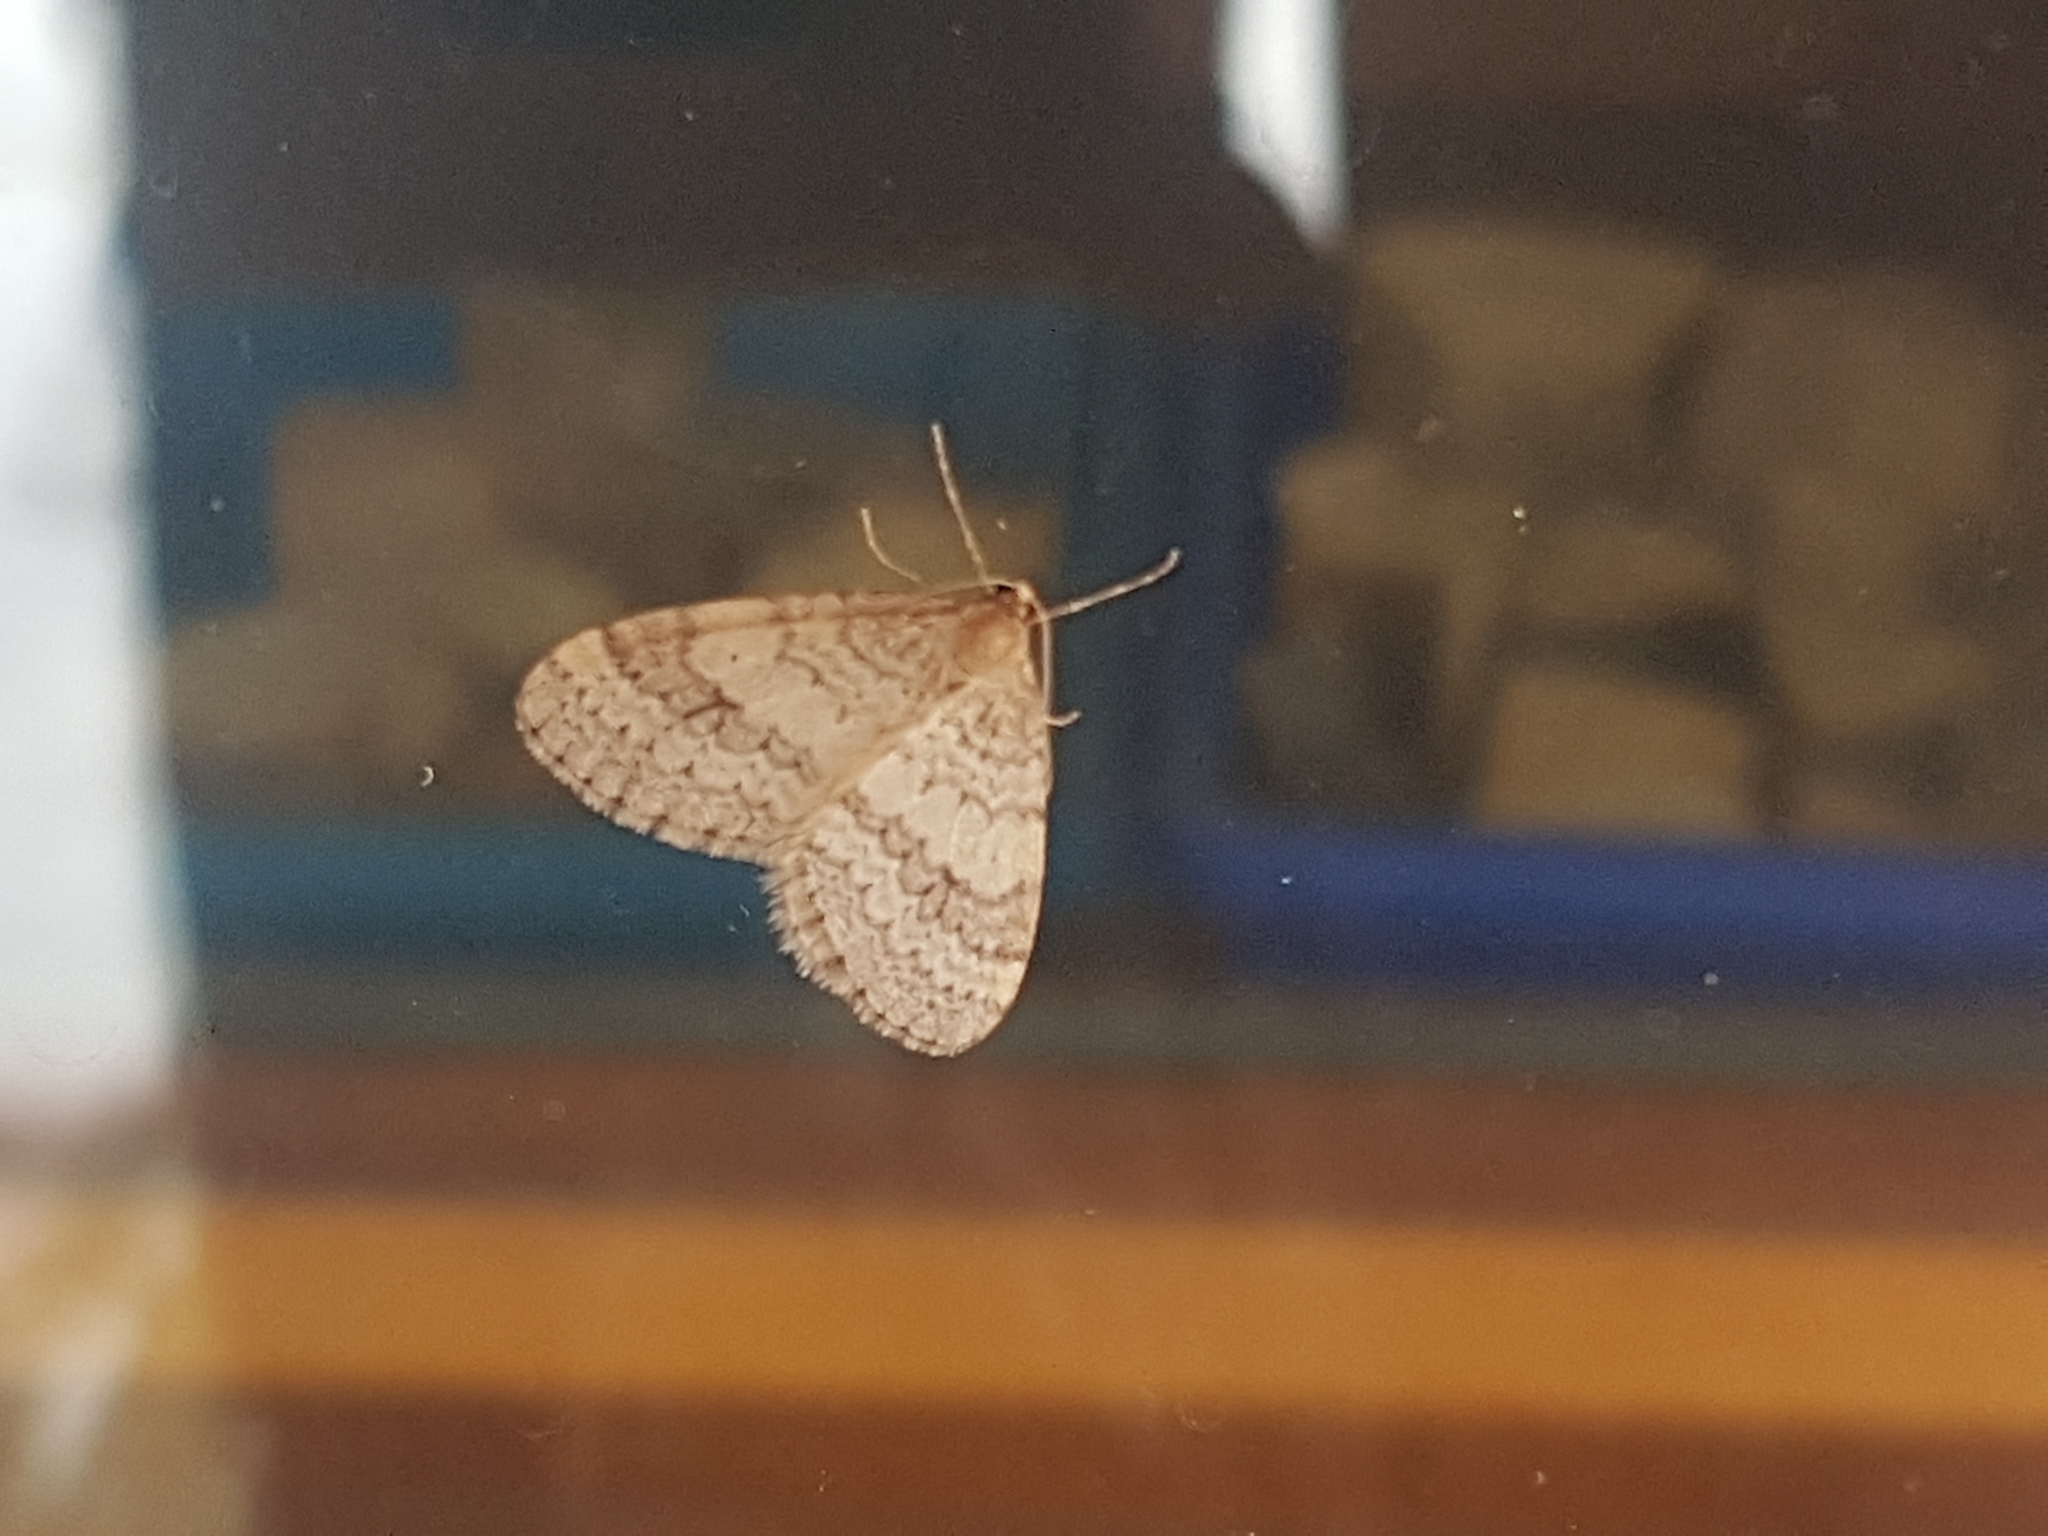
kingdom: Animalia
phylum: Arthropoda
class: Insecta
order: Lepidoptera
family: Geometridae
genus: Operophtera
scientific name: Operophtera bruceata
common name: Bruce spanworm
